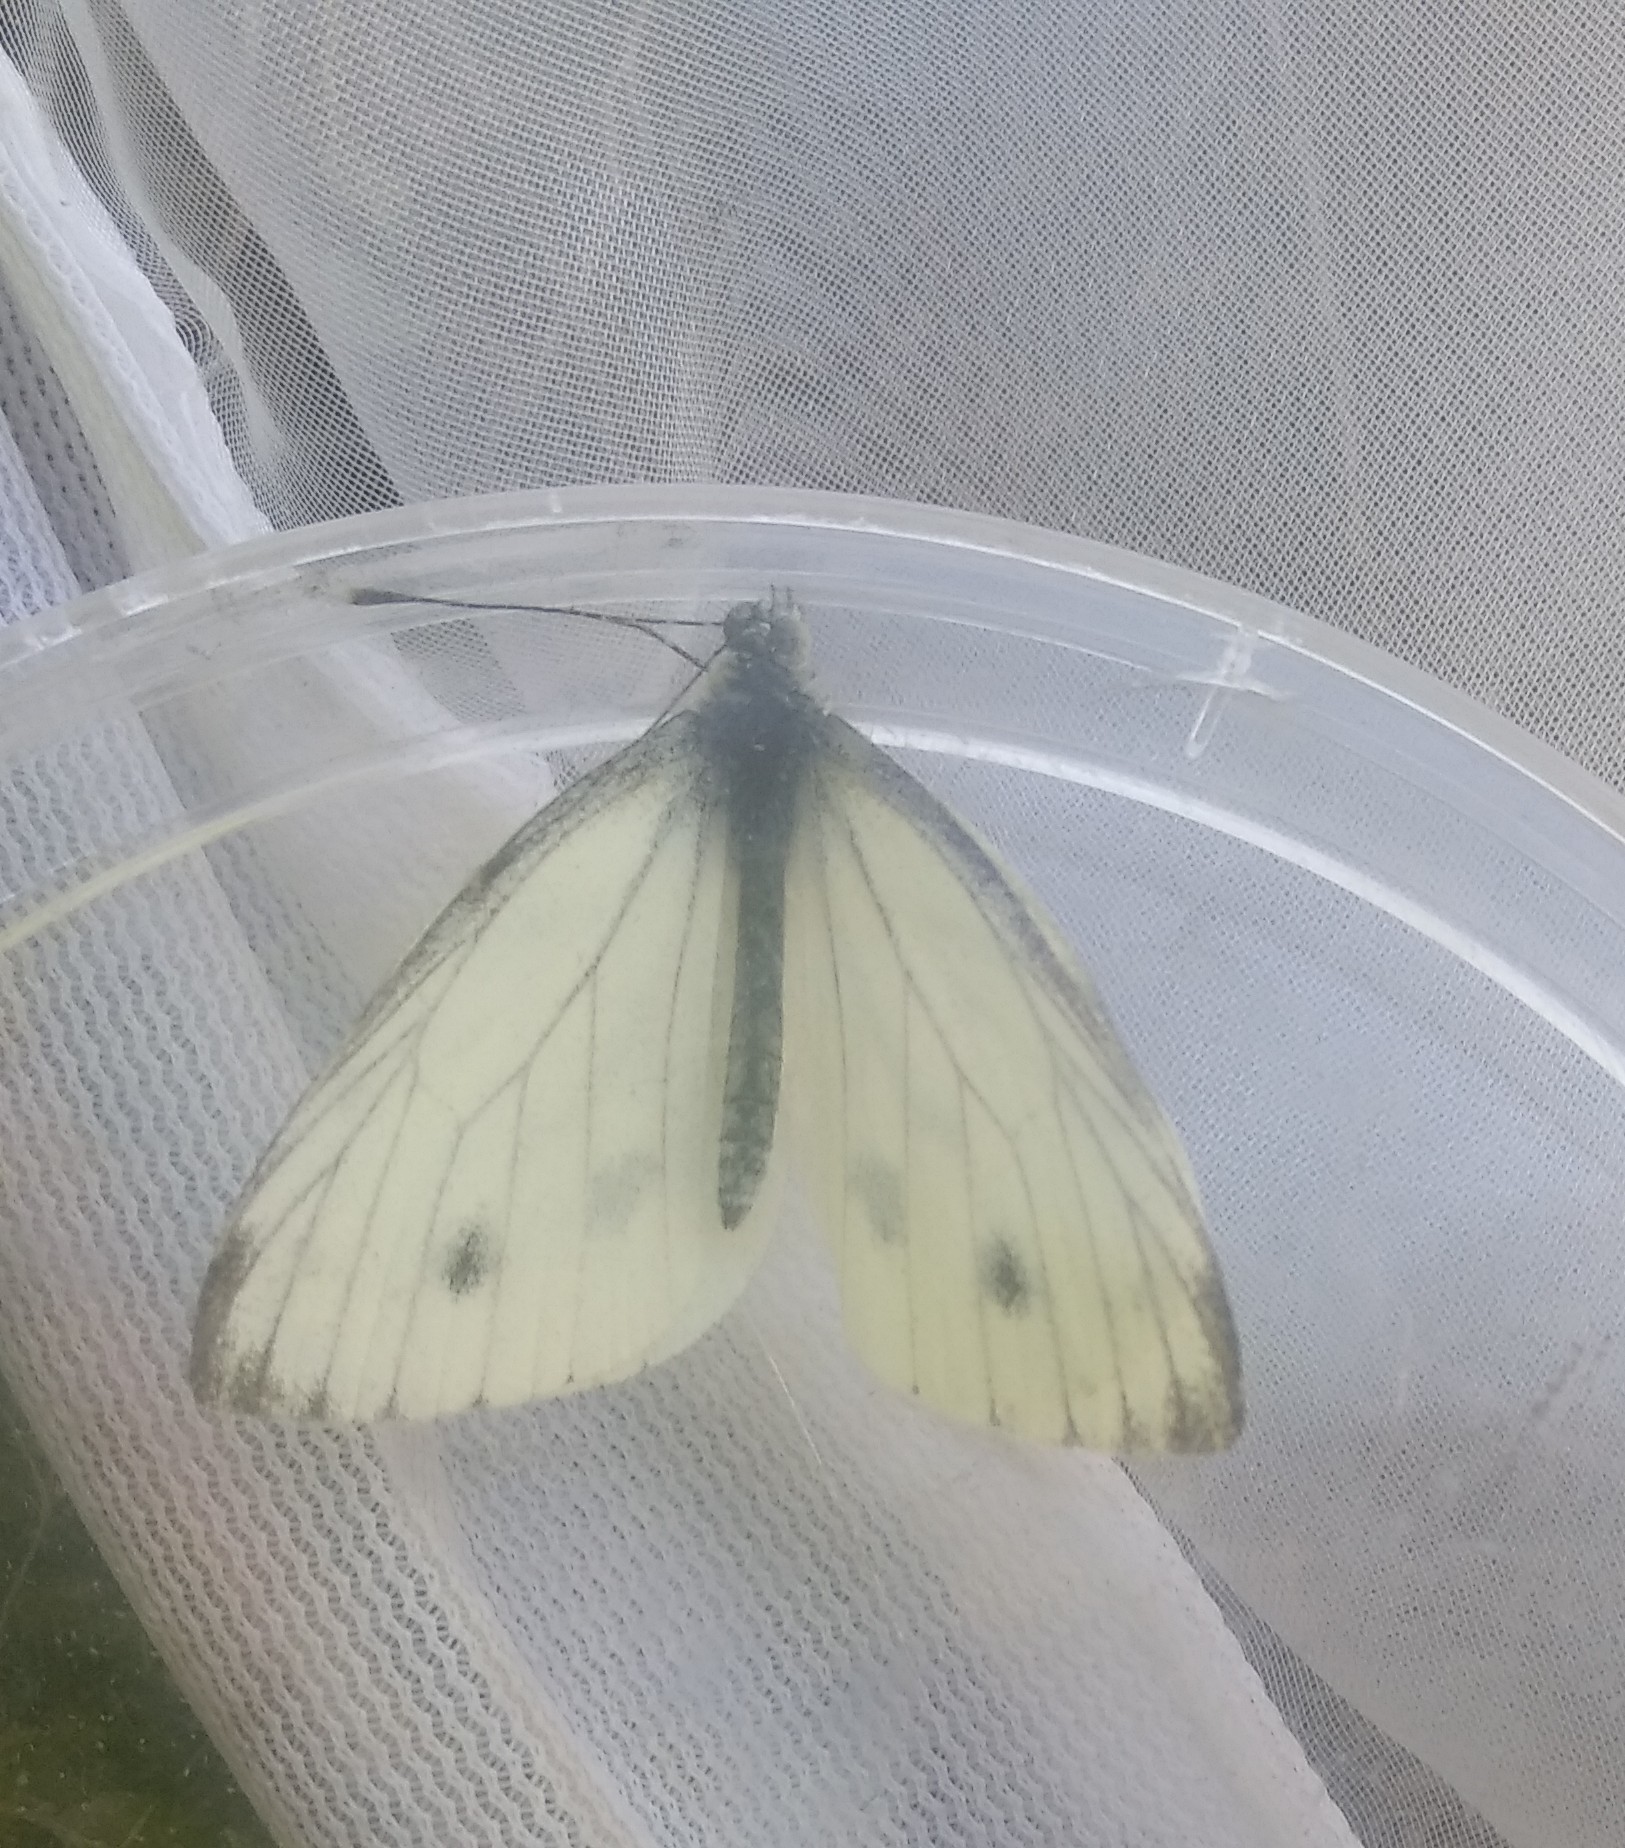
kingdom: Animalia
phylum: Arthropoda
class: Insecta
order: Lepidoptera
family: Pieridae
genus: Pieris
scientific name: Pieris napi
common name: Green-veined white
